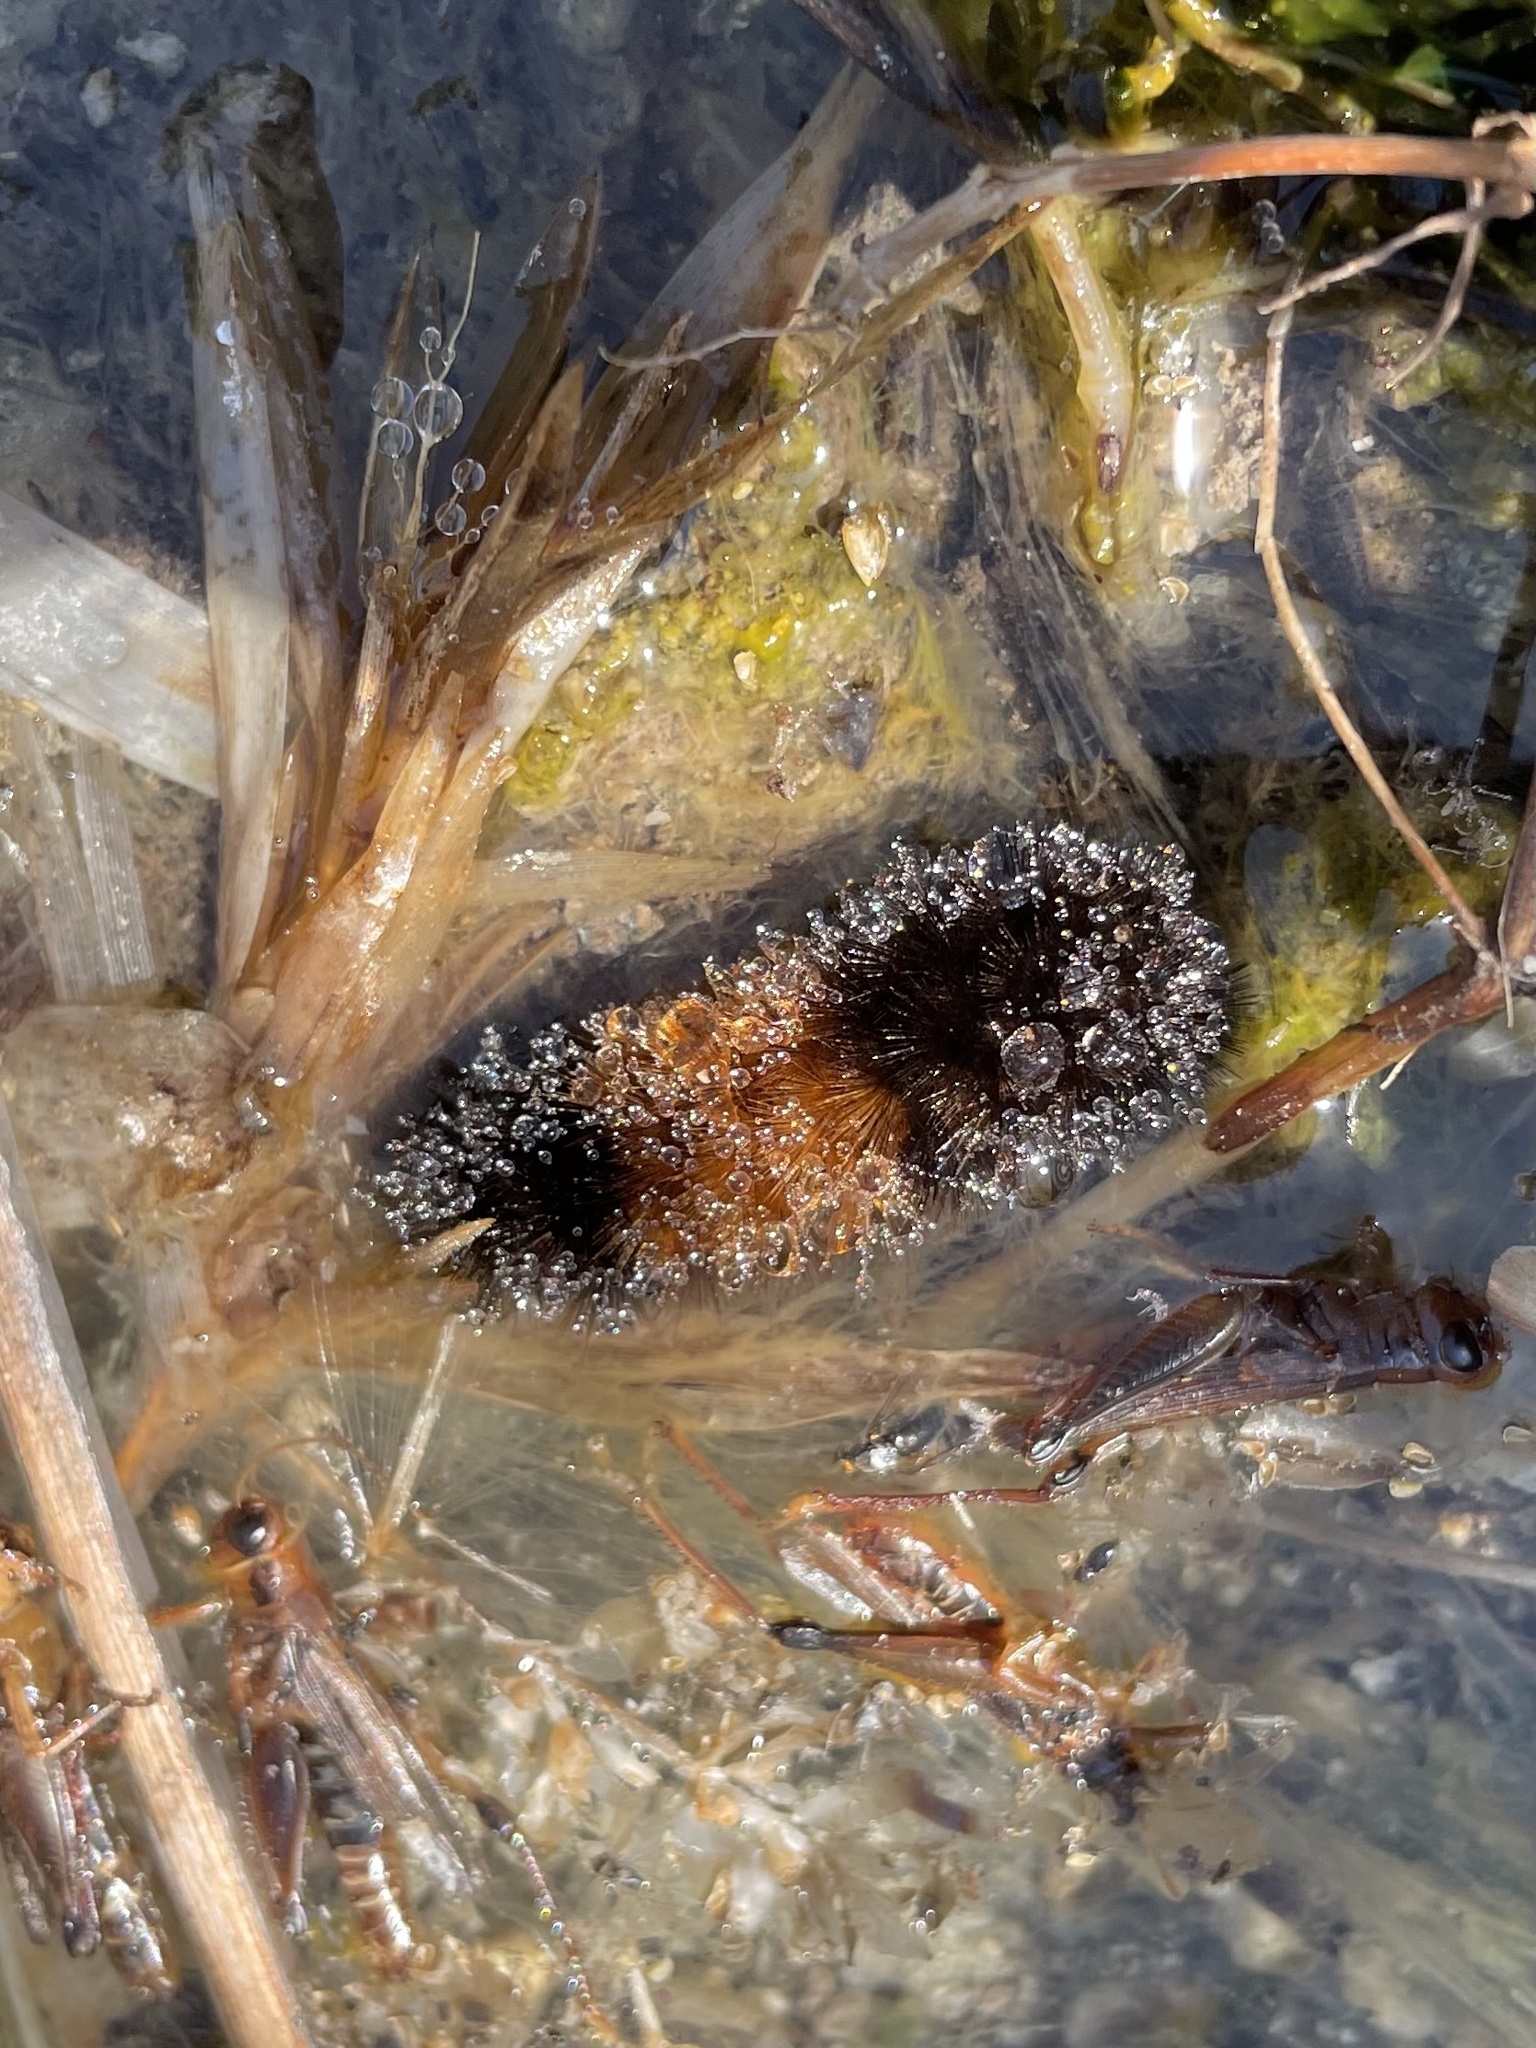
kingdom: Animalia
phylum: Arthropoda
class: Insecta
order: Lepidoptera
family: Erebidae
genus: Pyrrharctia
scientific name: Pyrrharctia isabella
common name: Isabella tiger moth
